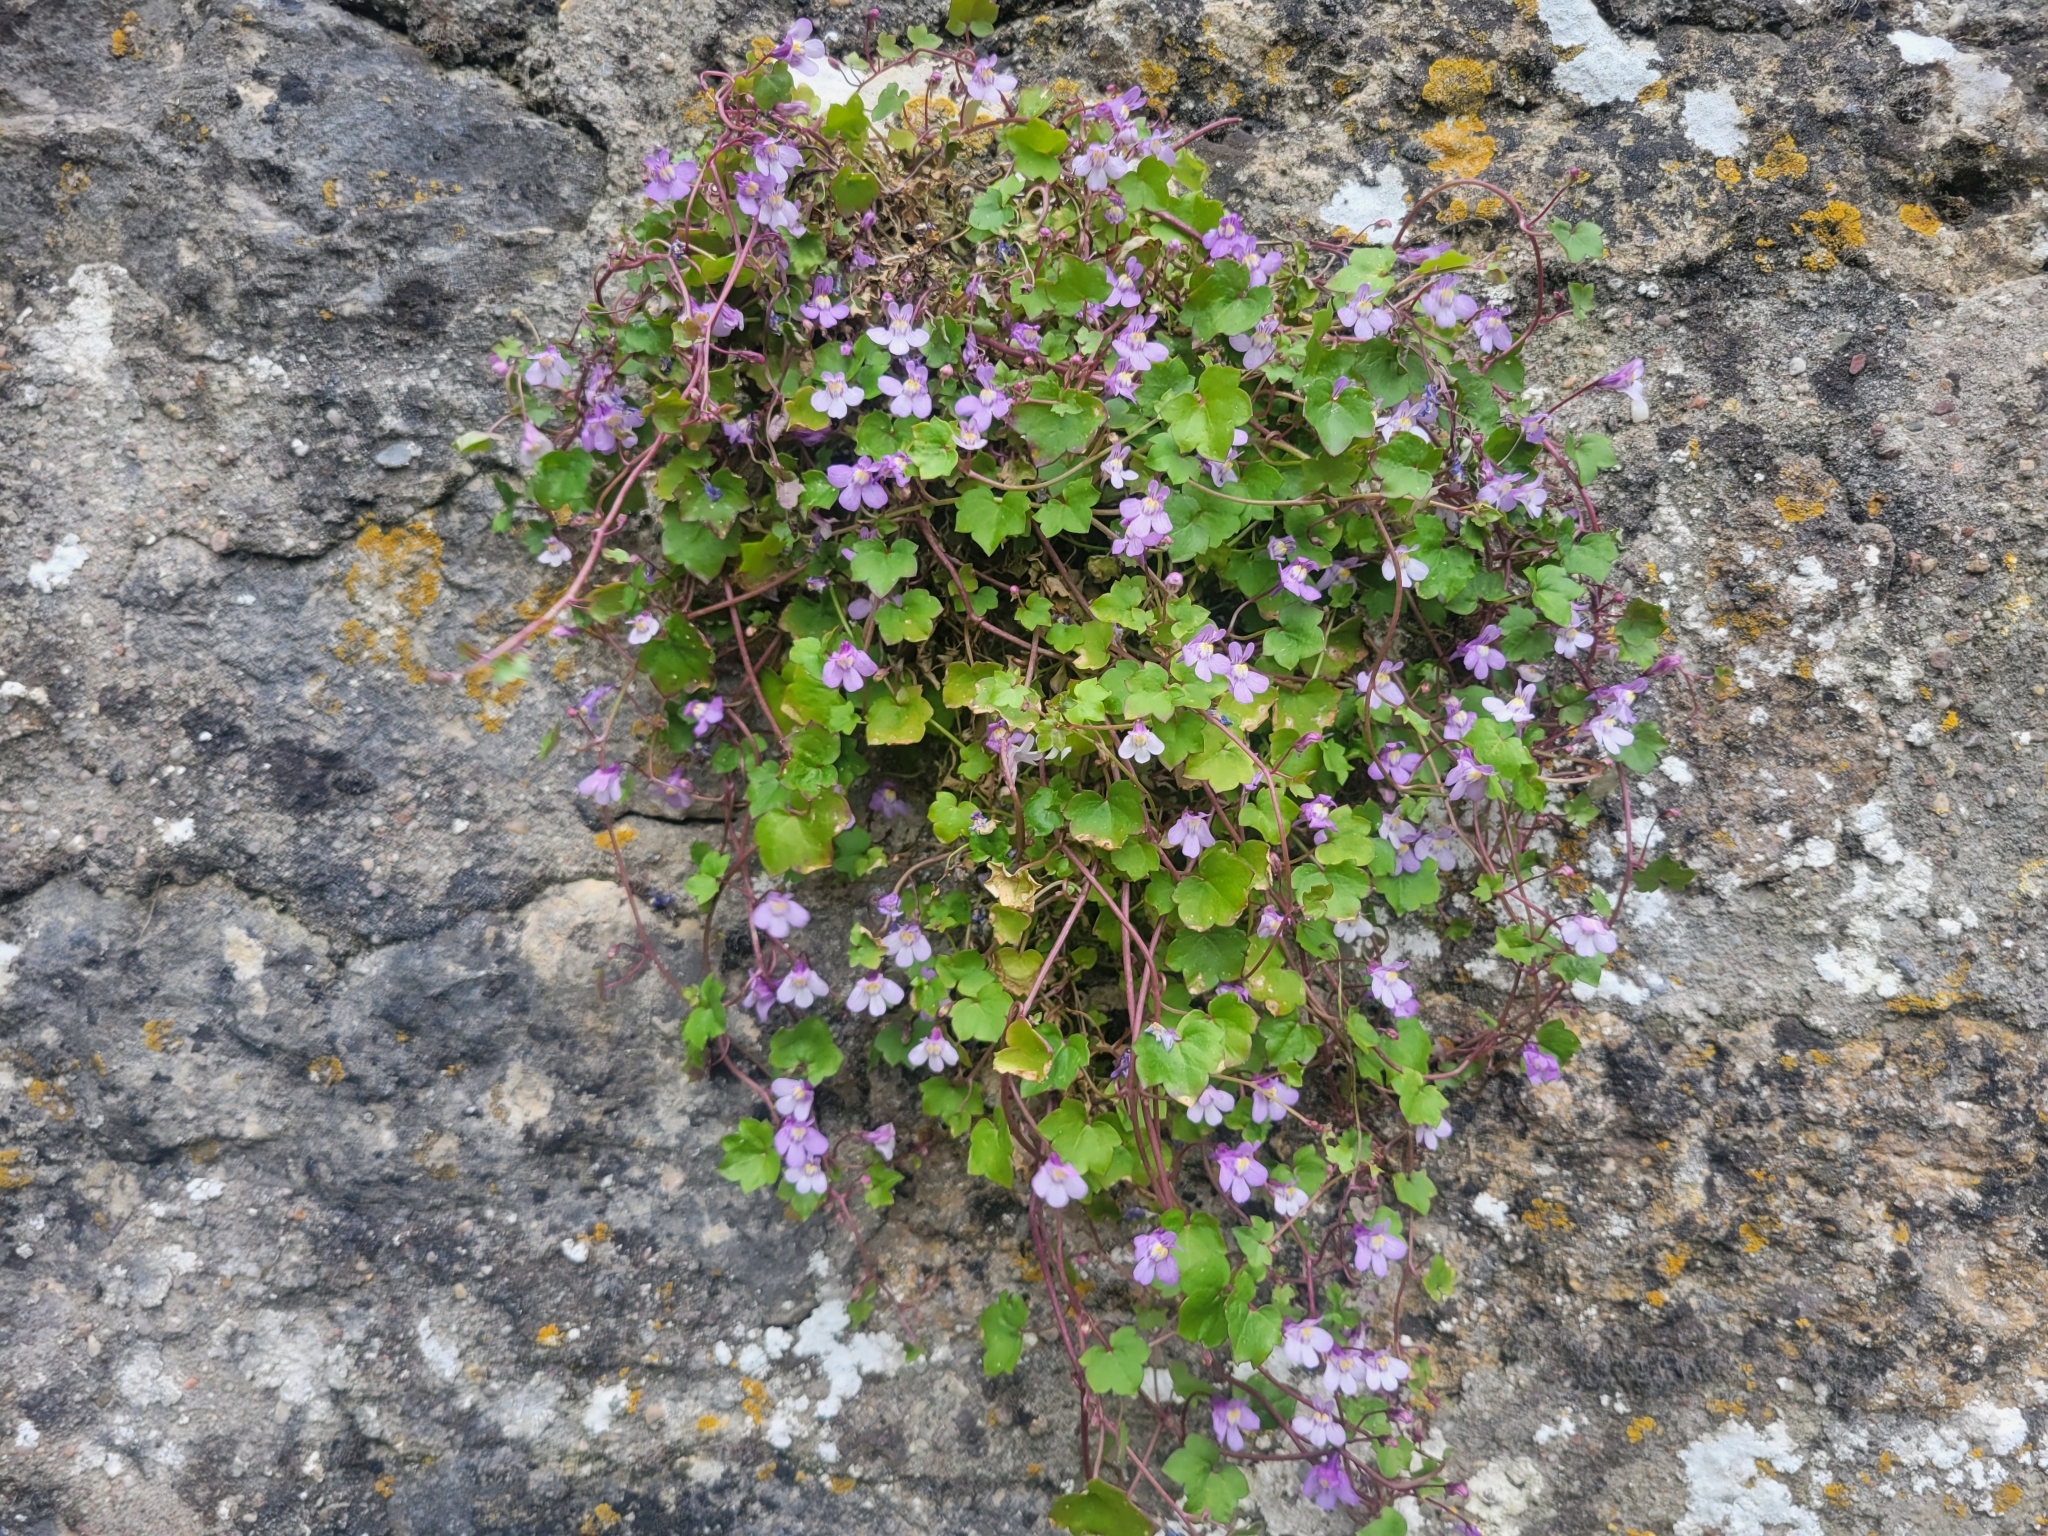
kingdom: Plantae
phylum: Tracheophyta
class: Magnoliopsida
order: Lamiales
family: Plantaginaceae
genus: Cymbalaria
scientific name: Cymbalaria muralis
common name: Ivy-leaved toadflax
